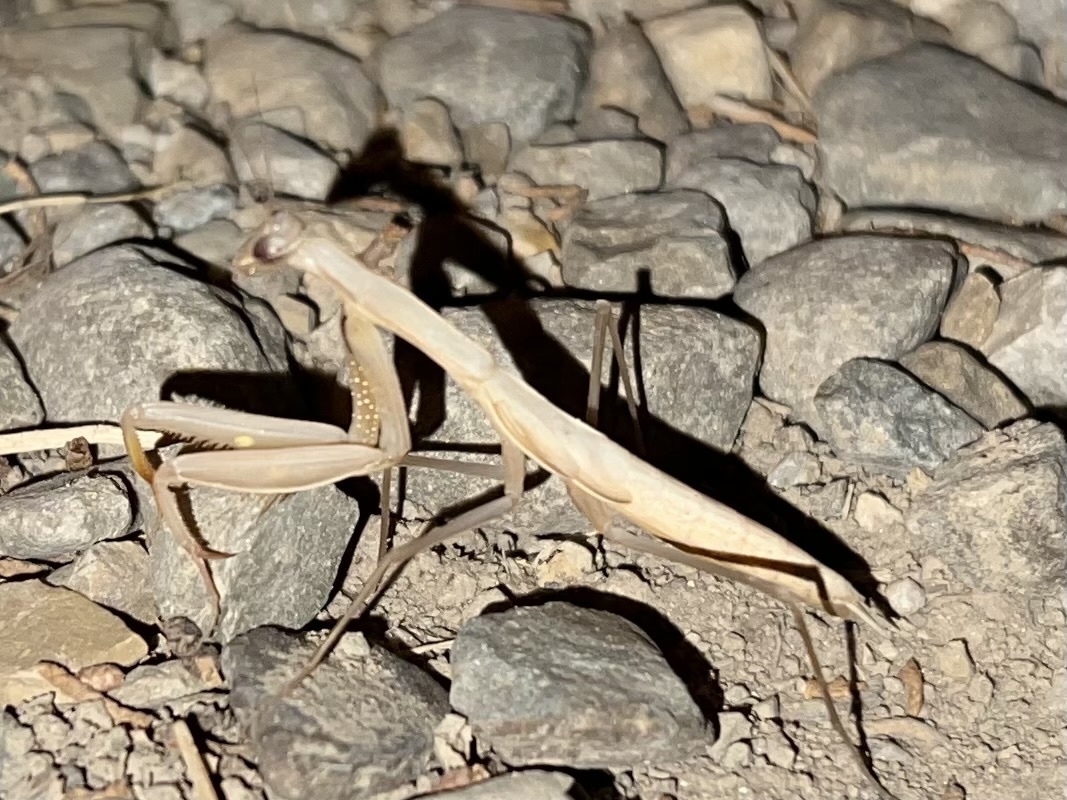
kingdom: Animalia
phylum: Arthropoda
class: Insecta
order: Mantodea
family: Mantidae
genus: Mantis
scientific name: Mantis religiosa
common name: Praying mantis
